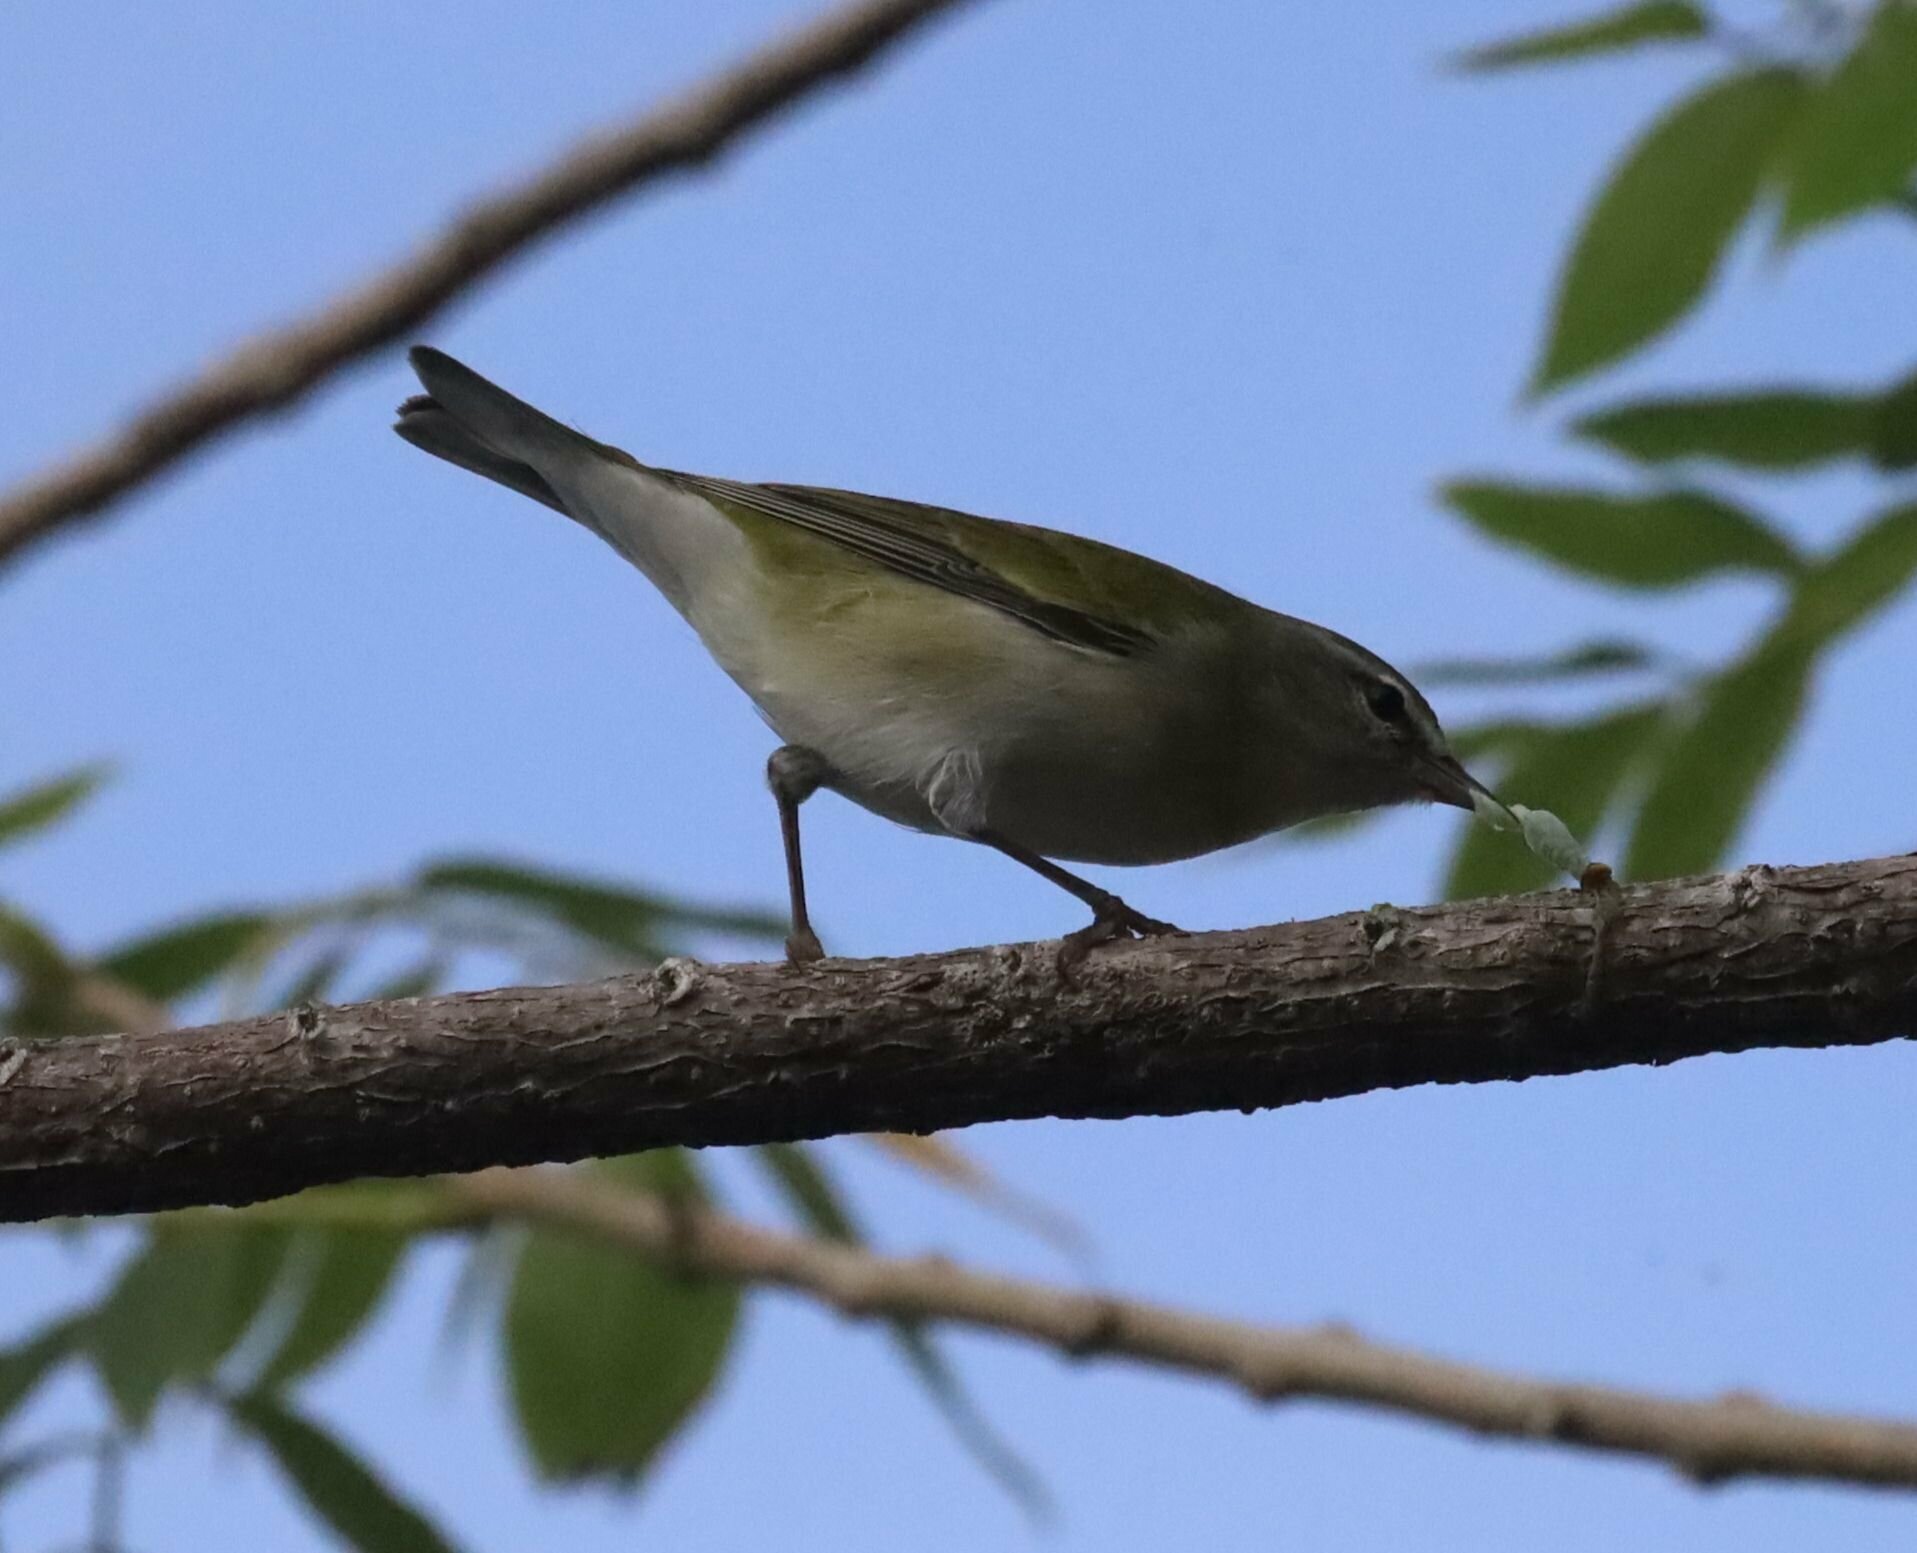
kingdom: Animalia
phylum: Chordata
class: Aves
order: Passeriformes
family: Parulidae
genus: Leiothlypis
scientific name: Leiothlypis peregrina
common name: Tennessee warbler
